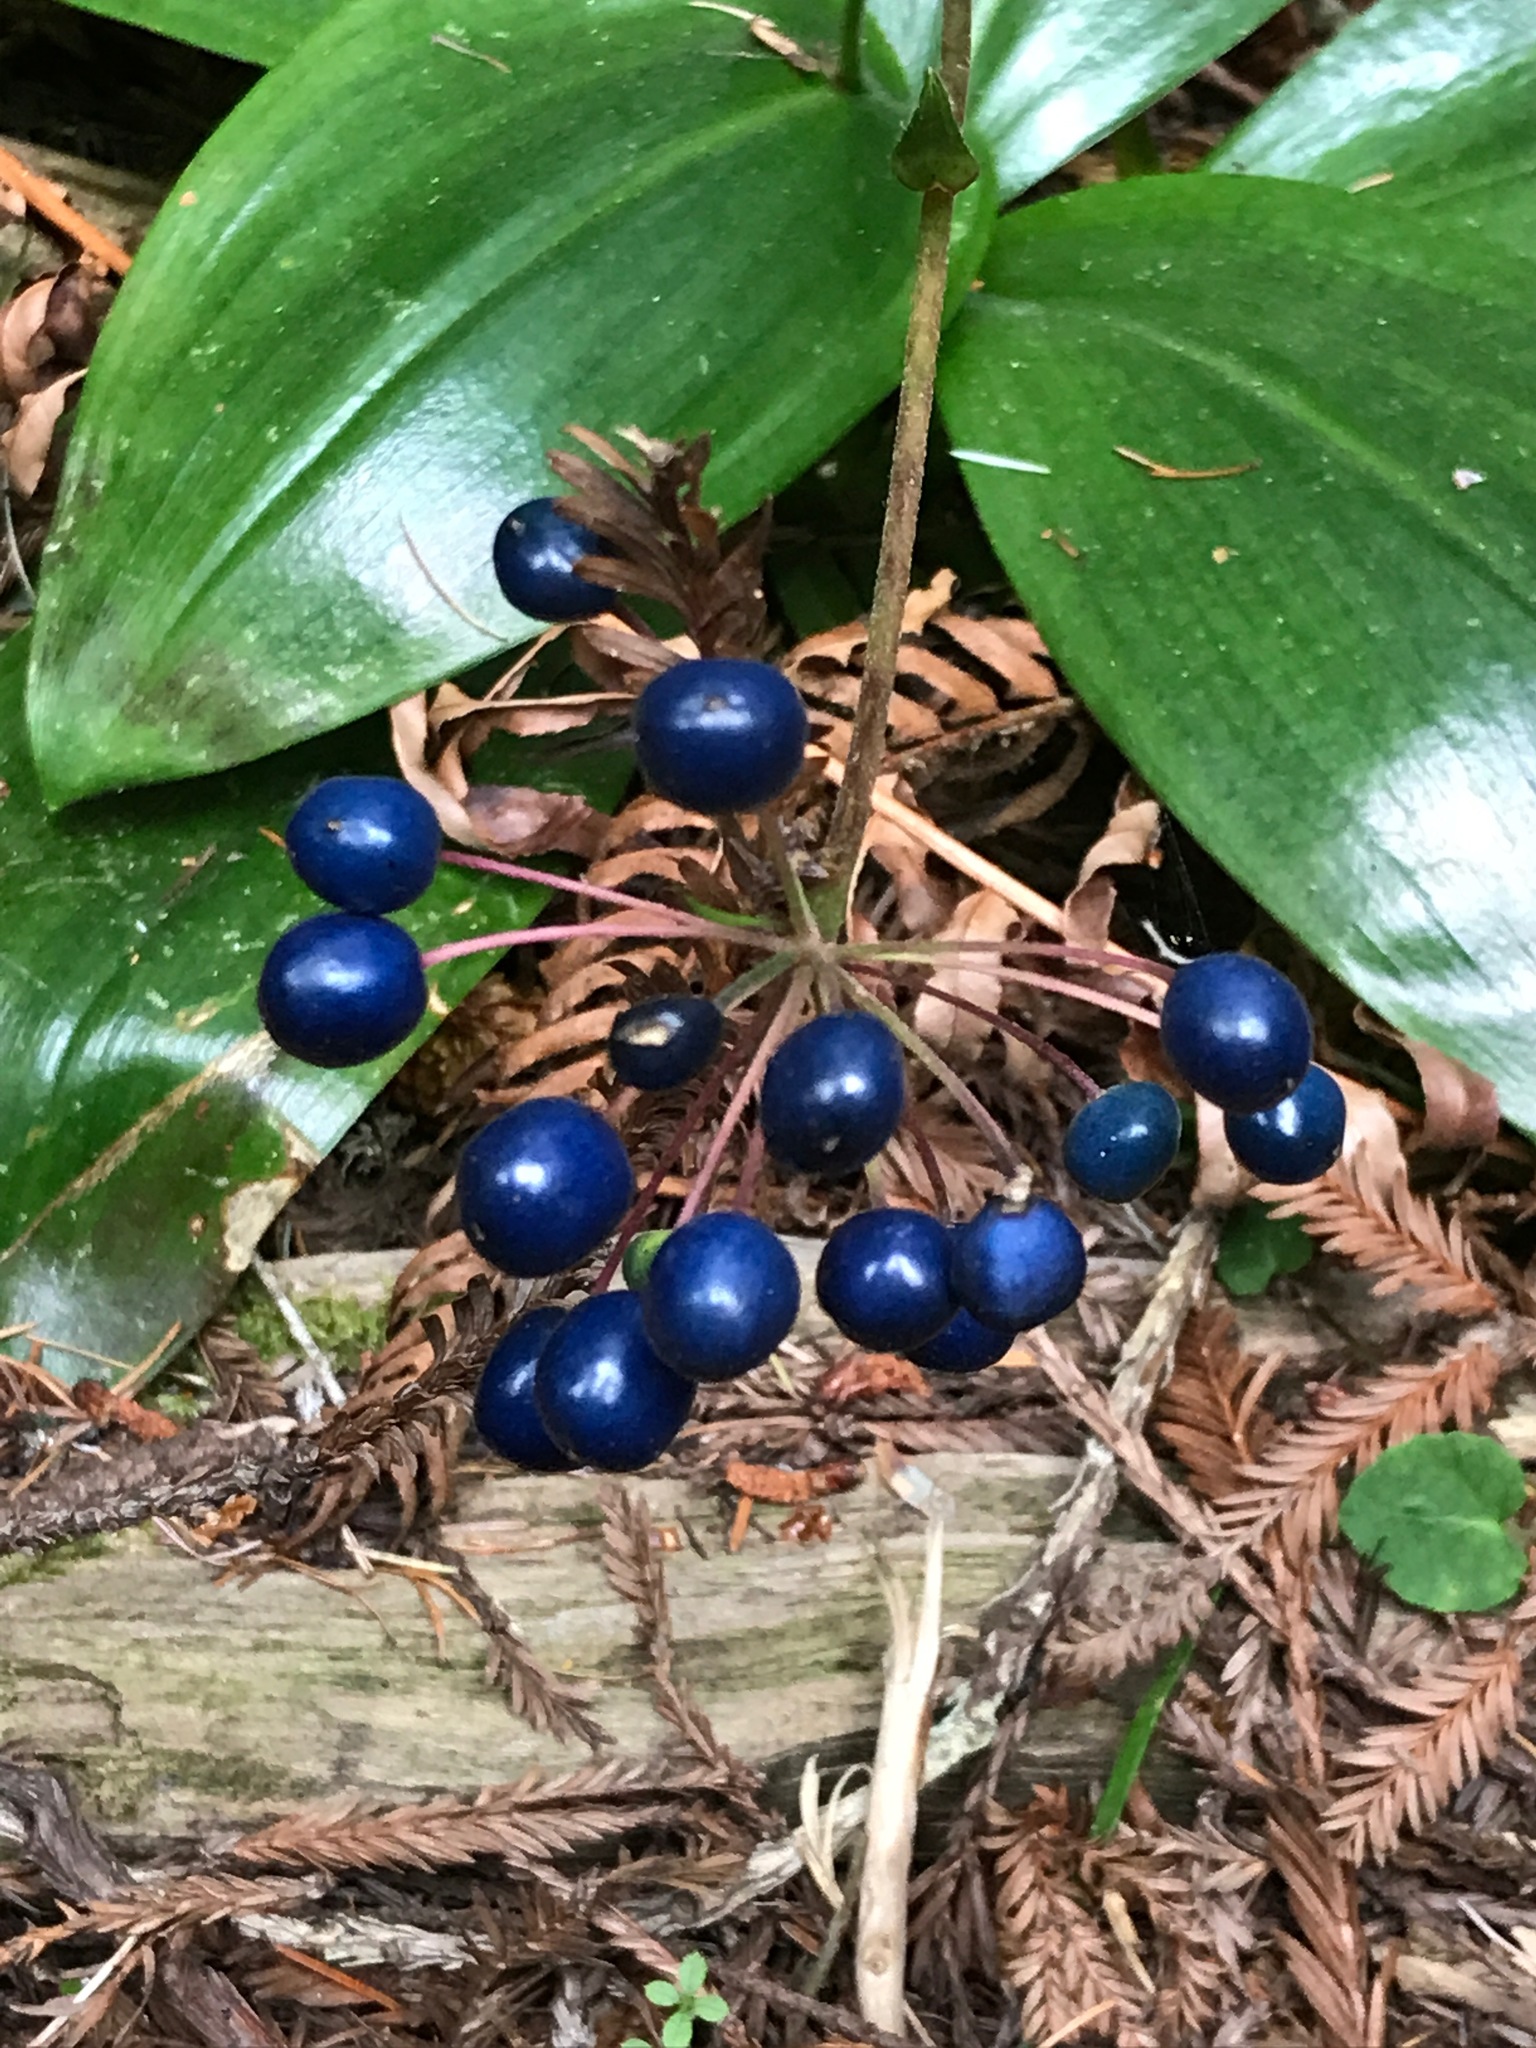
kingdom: Plantae
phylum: Tracheophyta
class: Liliopsida
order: Liliales
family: Liliaceae
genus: Clintonia
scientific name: Clintonia andrewsiana
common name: Red clintonia
